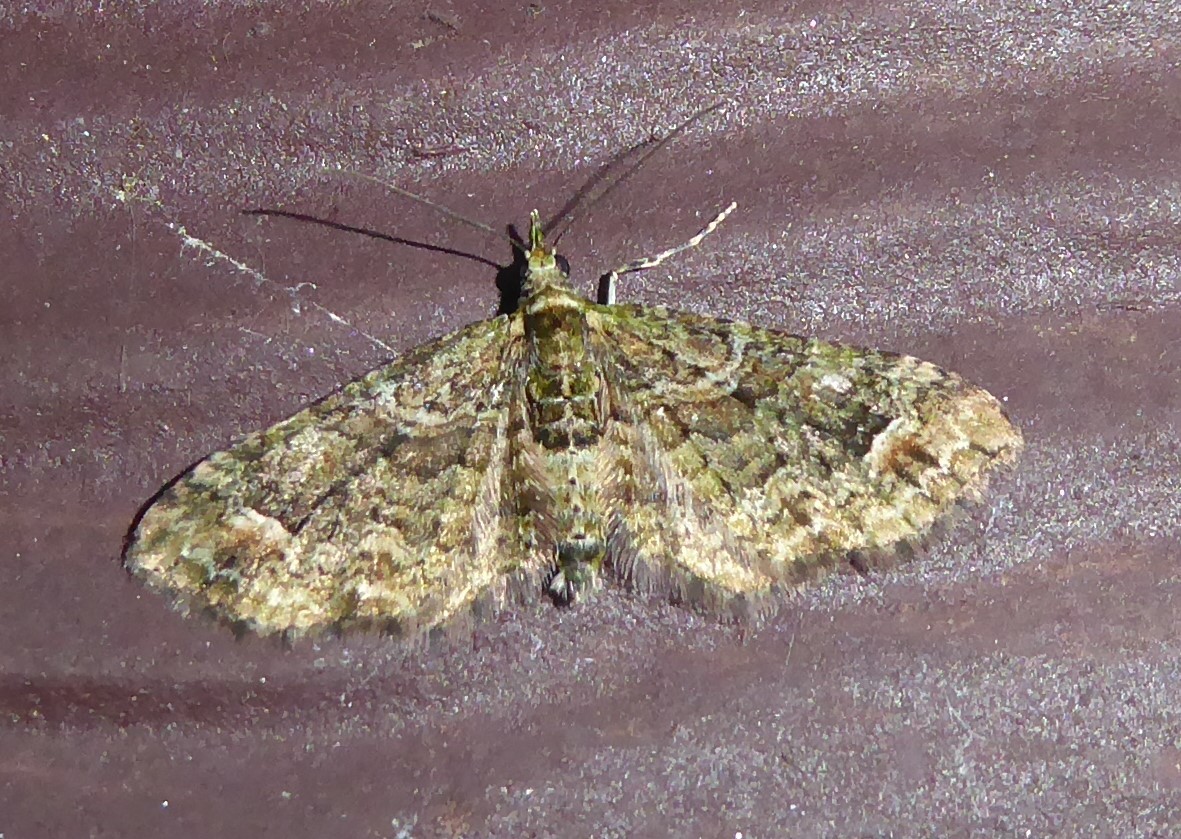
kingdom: Animalia
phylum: Arthropoda
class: Insecta
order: Lepidoptera
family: Geometridae
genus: Idaea
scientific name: Idaea mutanda
